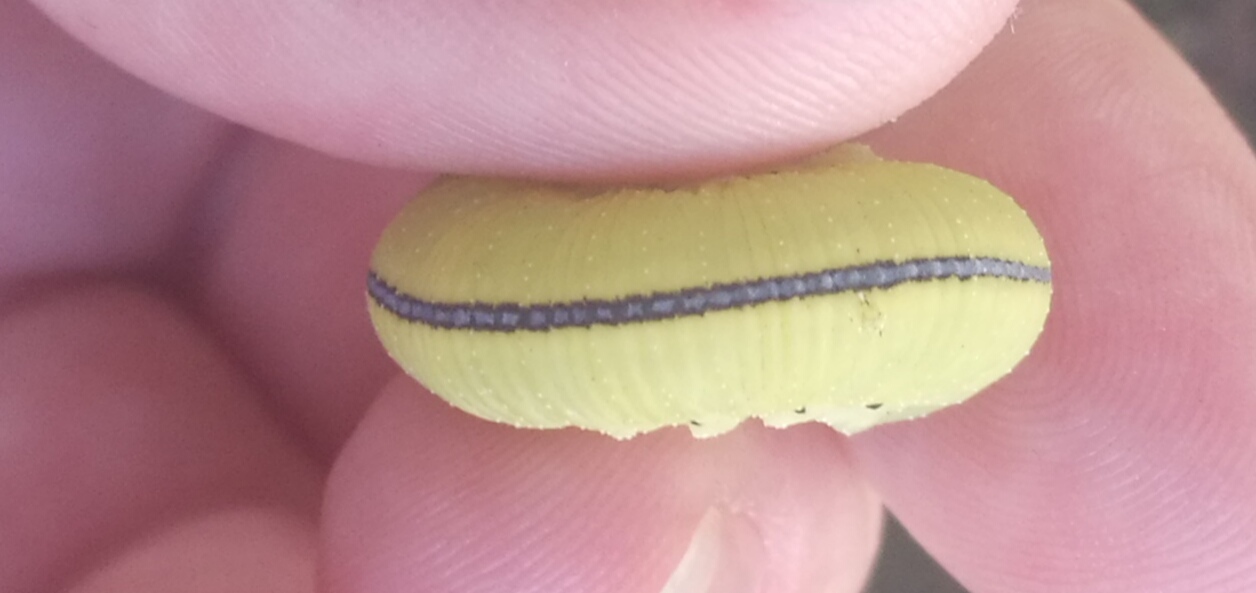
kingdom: Animalia
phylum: Arthropoda
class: Insecta
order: Hymenoptera
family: Cimbicidae
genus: Cimbex
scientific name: Cimbex femoratus
